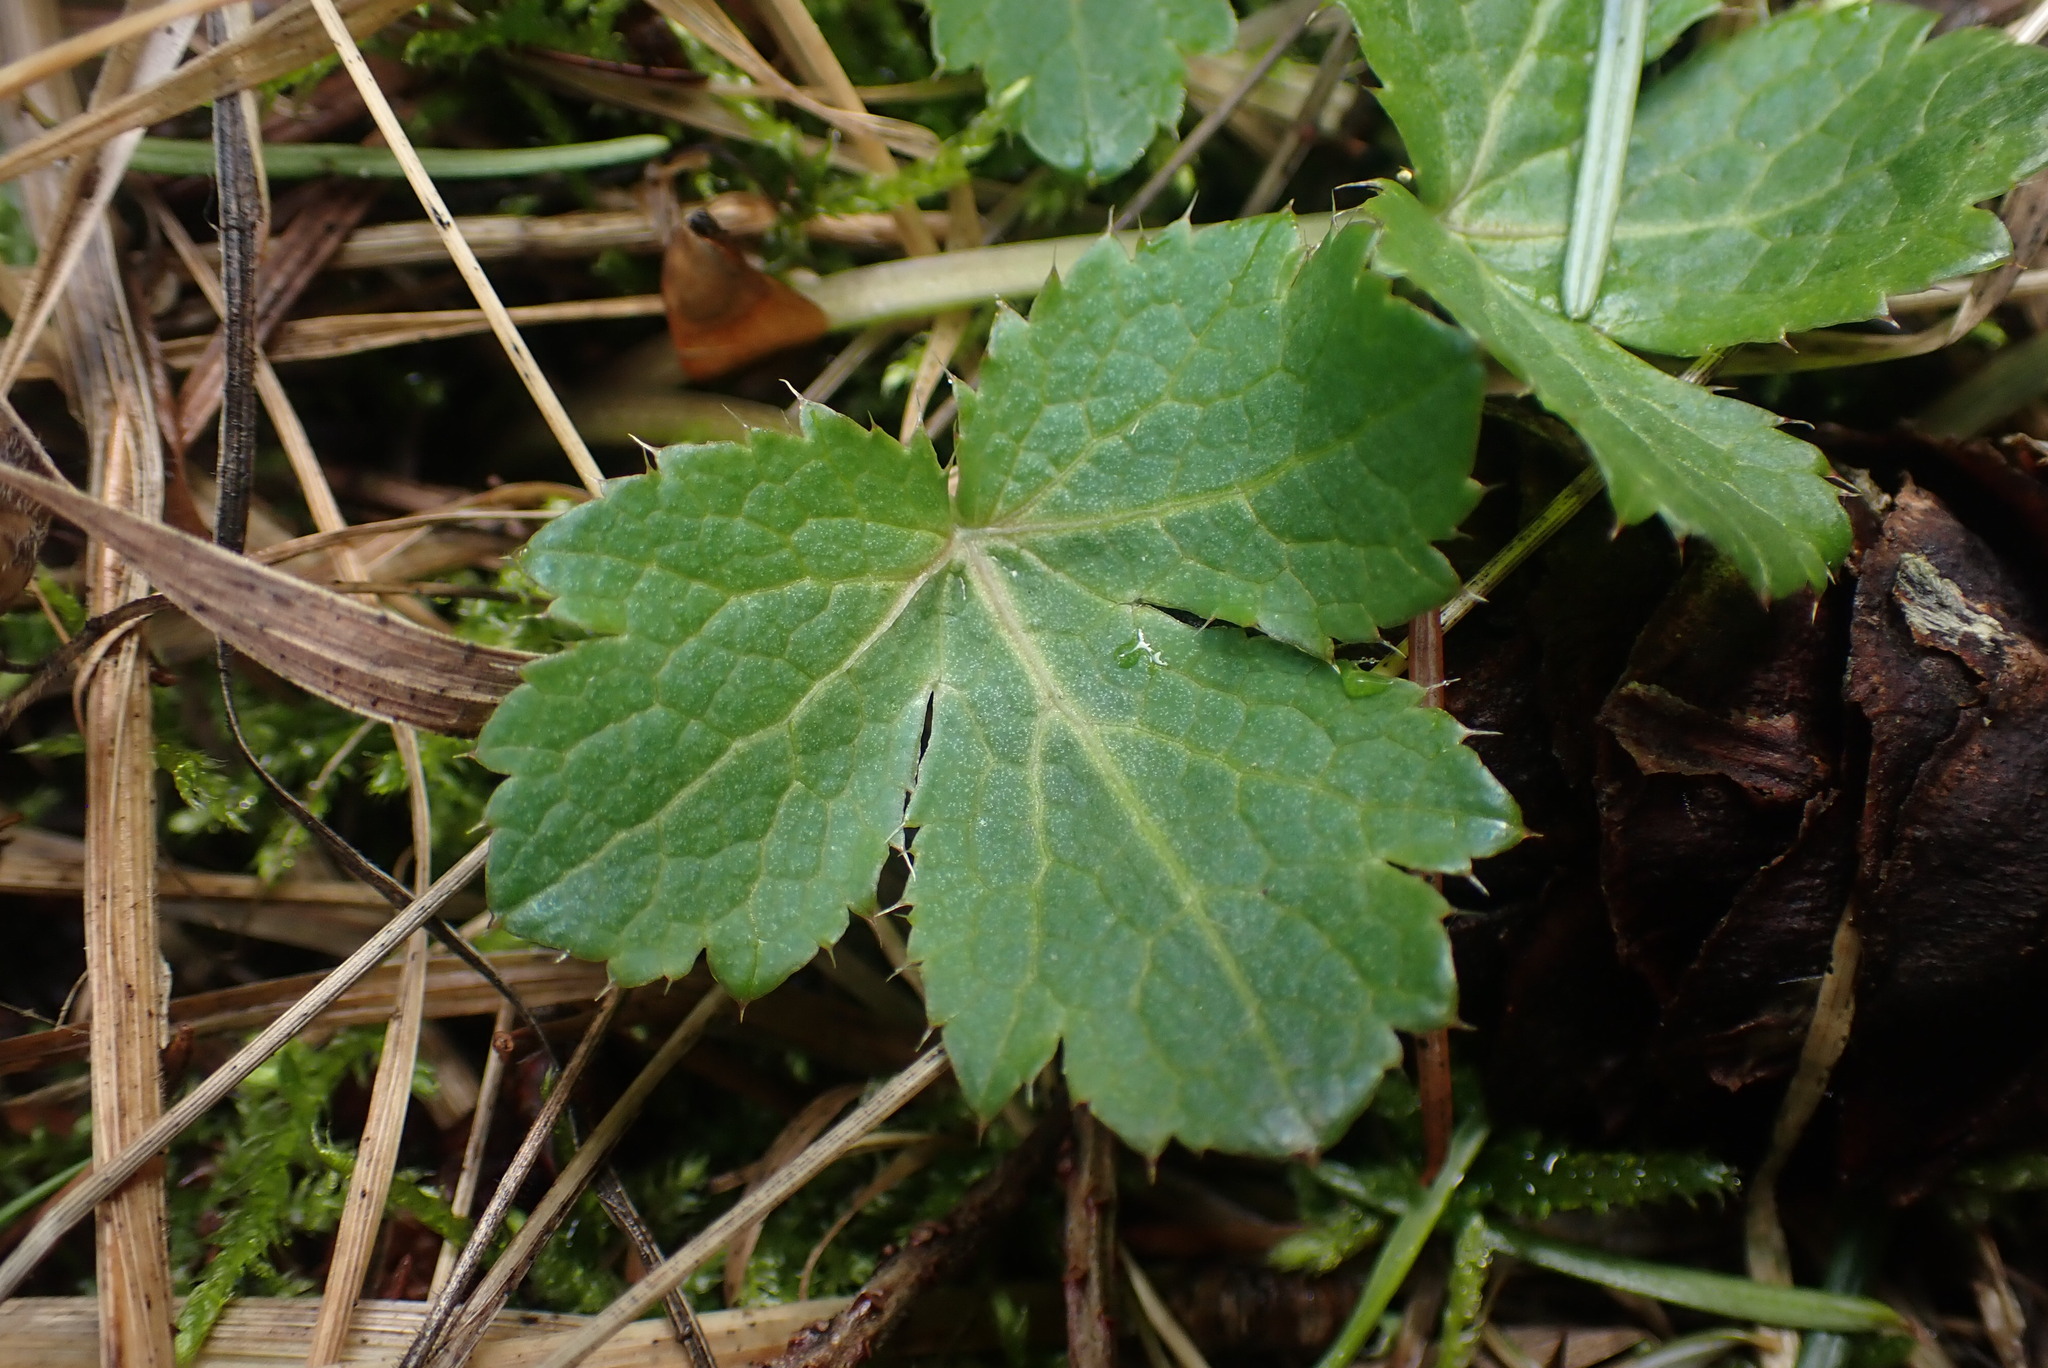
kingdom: Plantae
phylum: Tracheophyta
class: Magnoliopsida
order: Apiales
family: Apiaceae
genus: Sanicula
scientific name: Sanicula crassicaulis
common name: Western snakeroot
